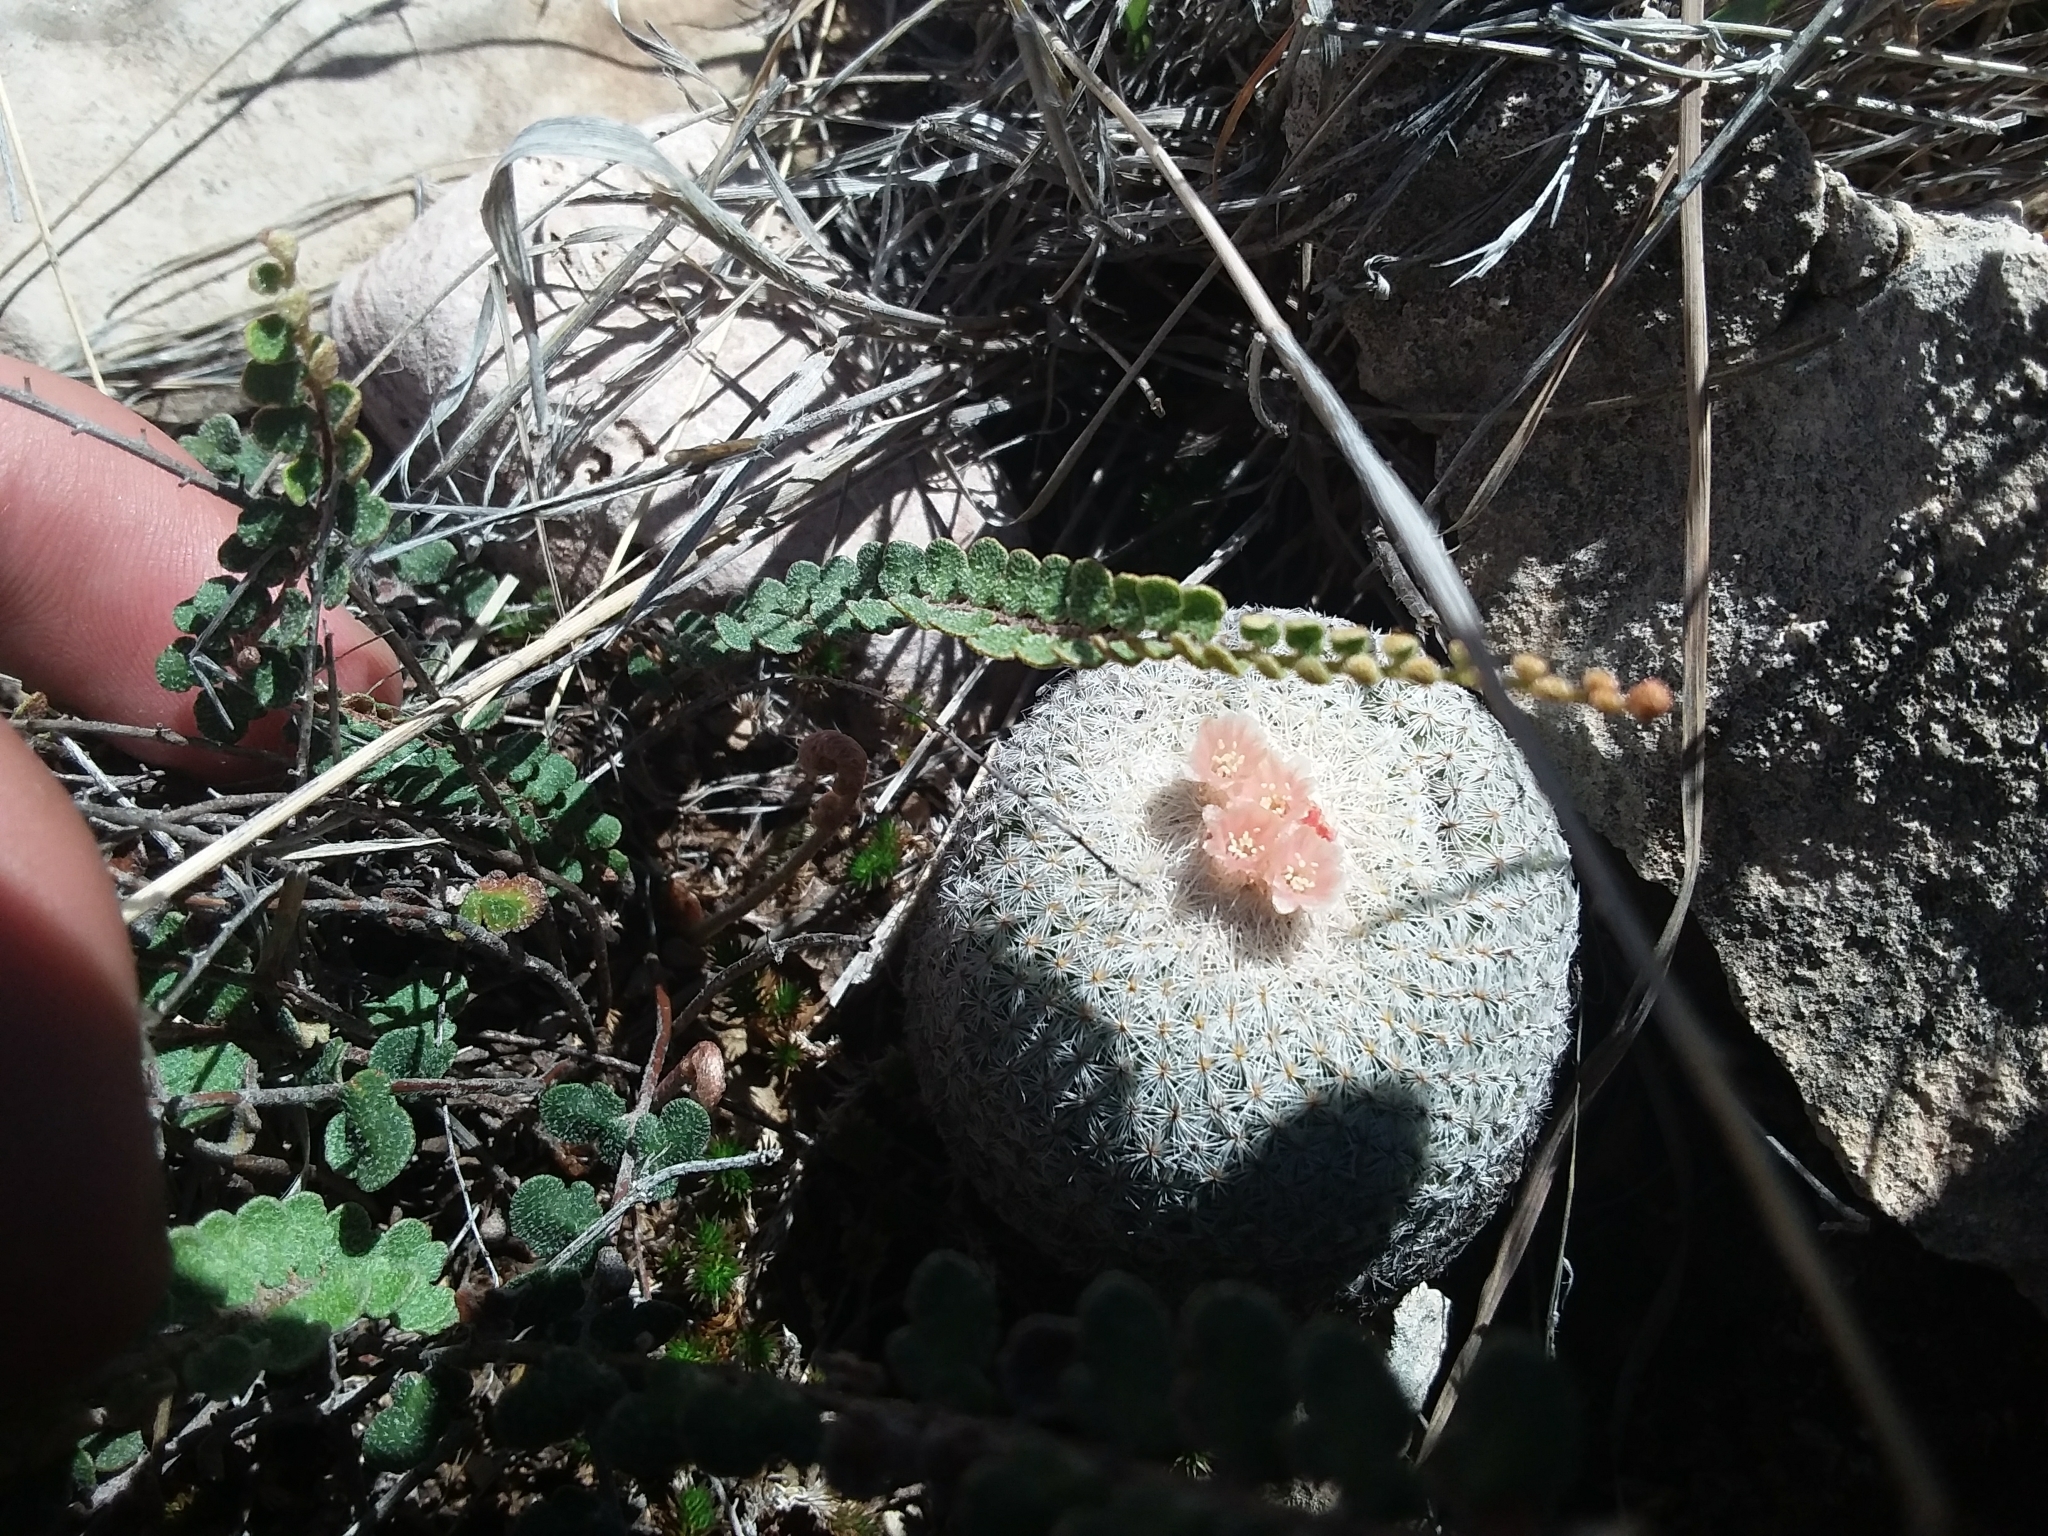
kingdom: Plantae
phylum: Tracheophyta
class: Magnoliopsida
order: Caryophyllales
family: Cactaceae
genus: Epithelantha
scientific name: Epithelantha micromeris
